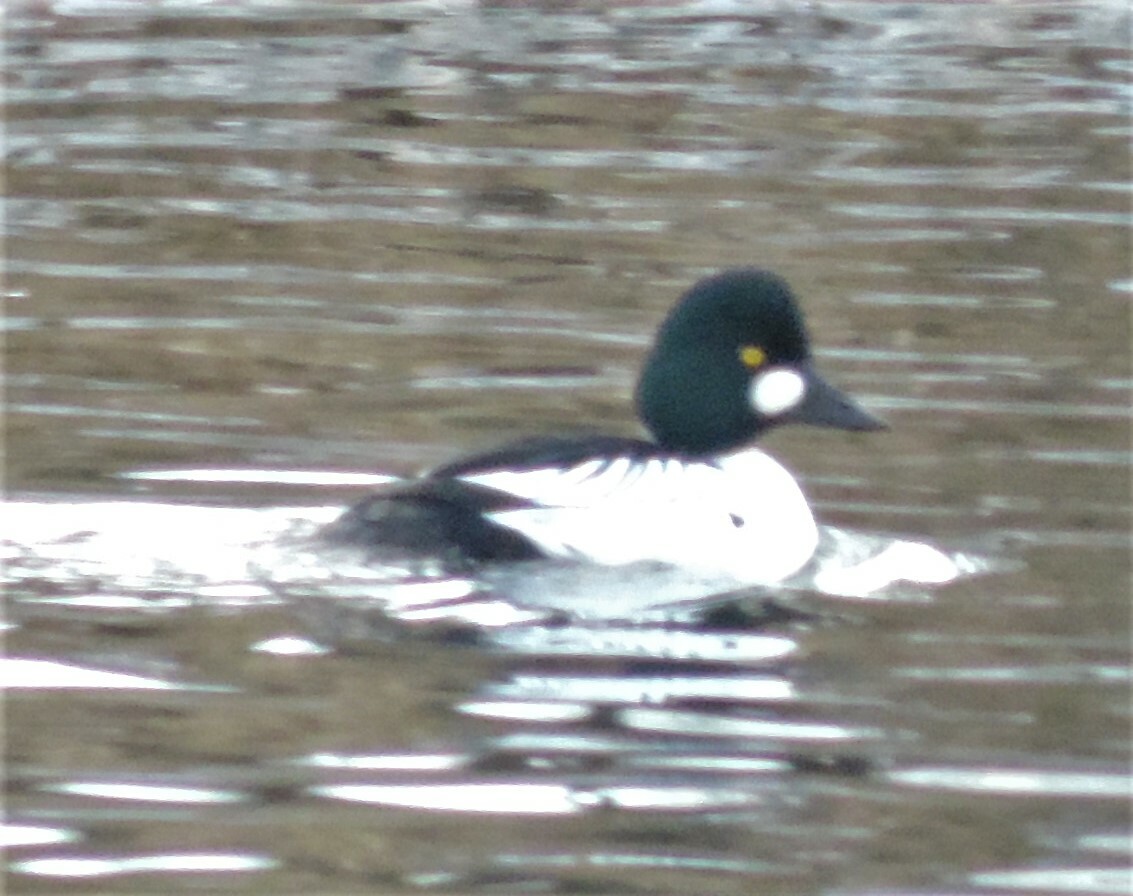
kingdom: Animalia
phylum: Chordata
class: Aves
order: Anseriformes
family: Anatidae
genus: Bucephala
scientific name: Bucephala clangula
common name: Common goldeneye
